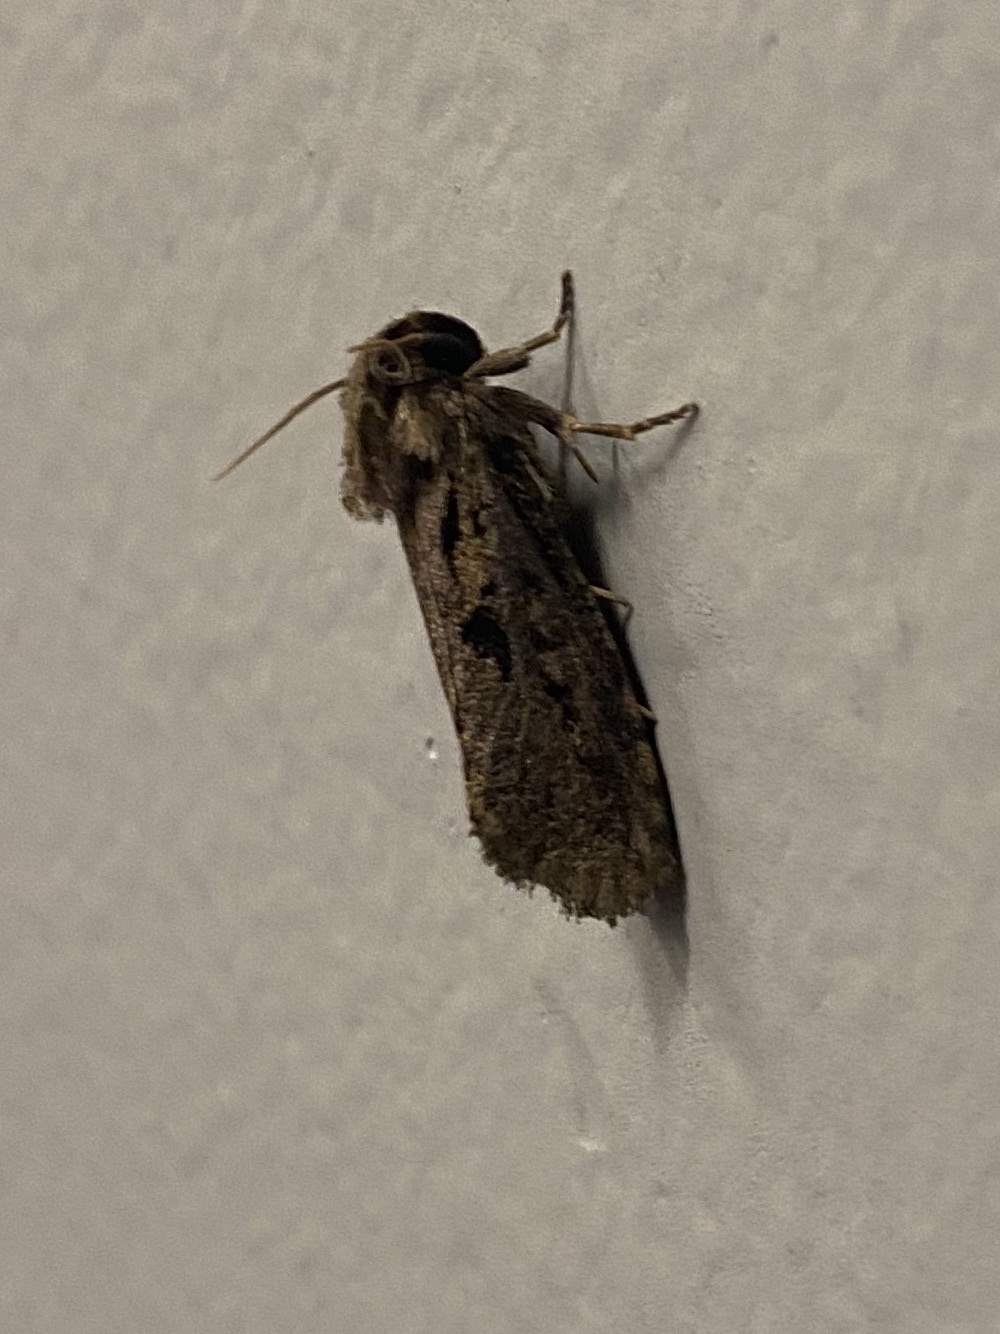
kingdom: Animalia
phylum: Arthropoda
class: Insecta
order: Lepidoptera
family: Tineidae
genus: Acrolophus
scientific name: Acrolophus popeanella
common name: Clemens' grass tubeworm moth
